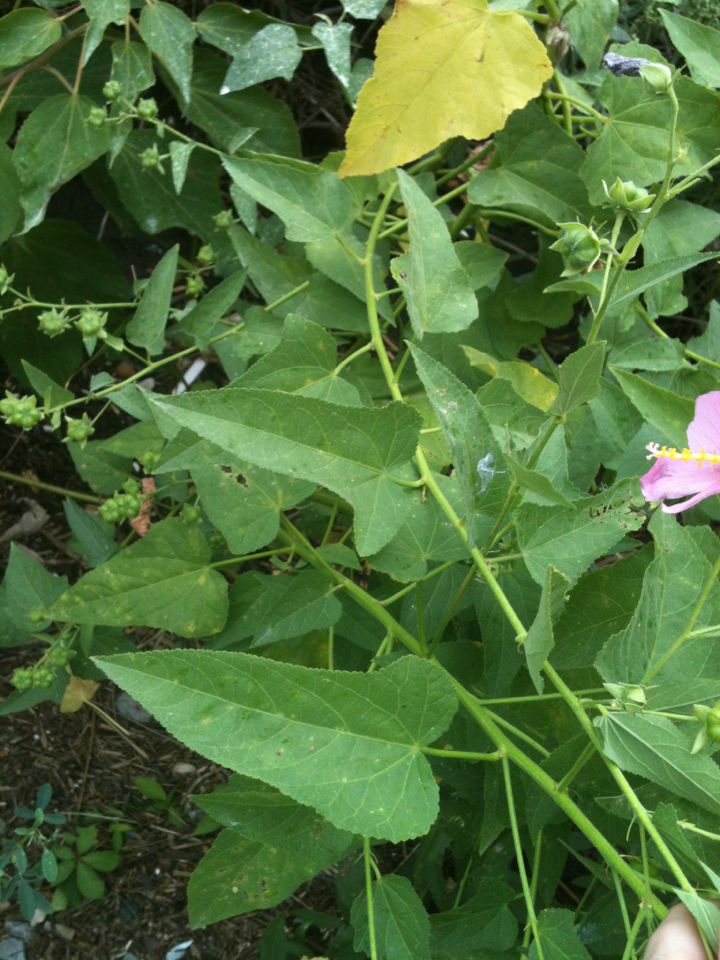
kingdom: Plantae
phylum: Tracheophyta
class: Magnoliopsida
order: Malvales
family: Malvaceae
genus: Kosteletzkya
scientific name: Kosteletzkya pentacarpos
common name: Virginia saltmarsh mallow
